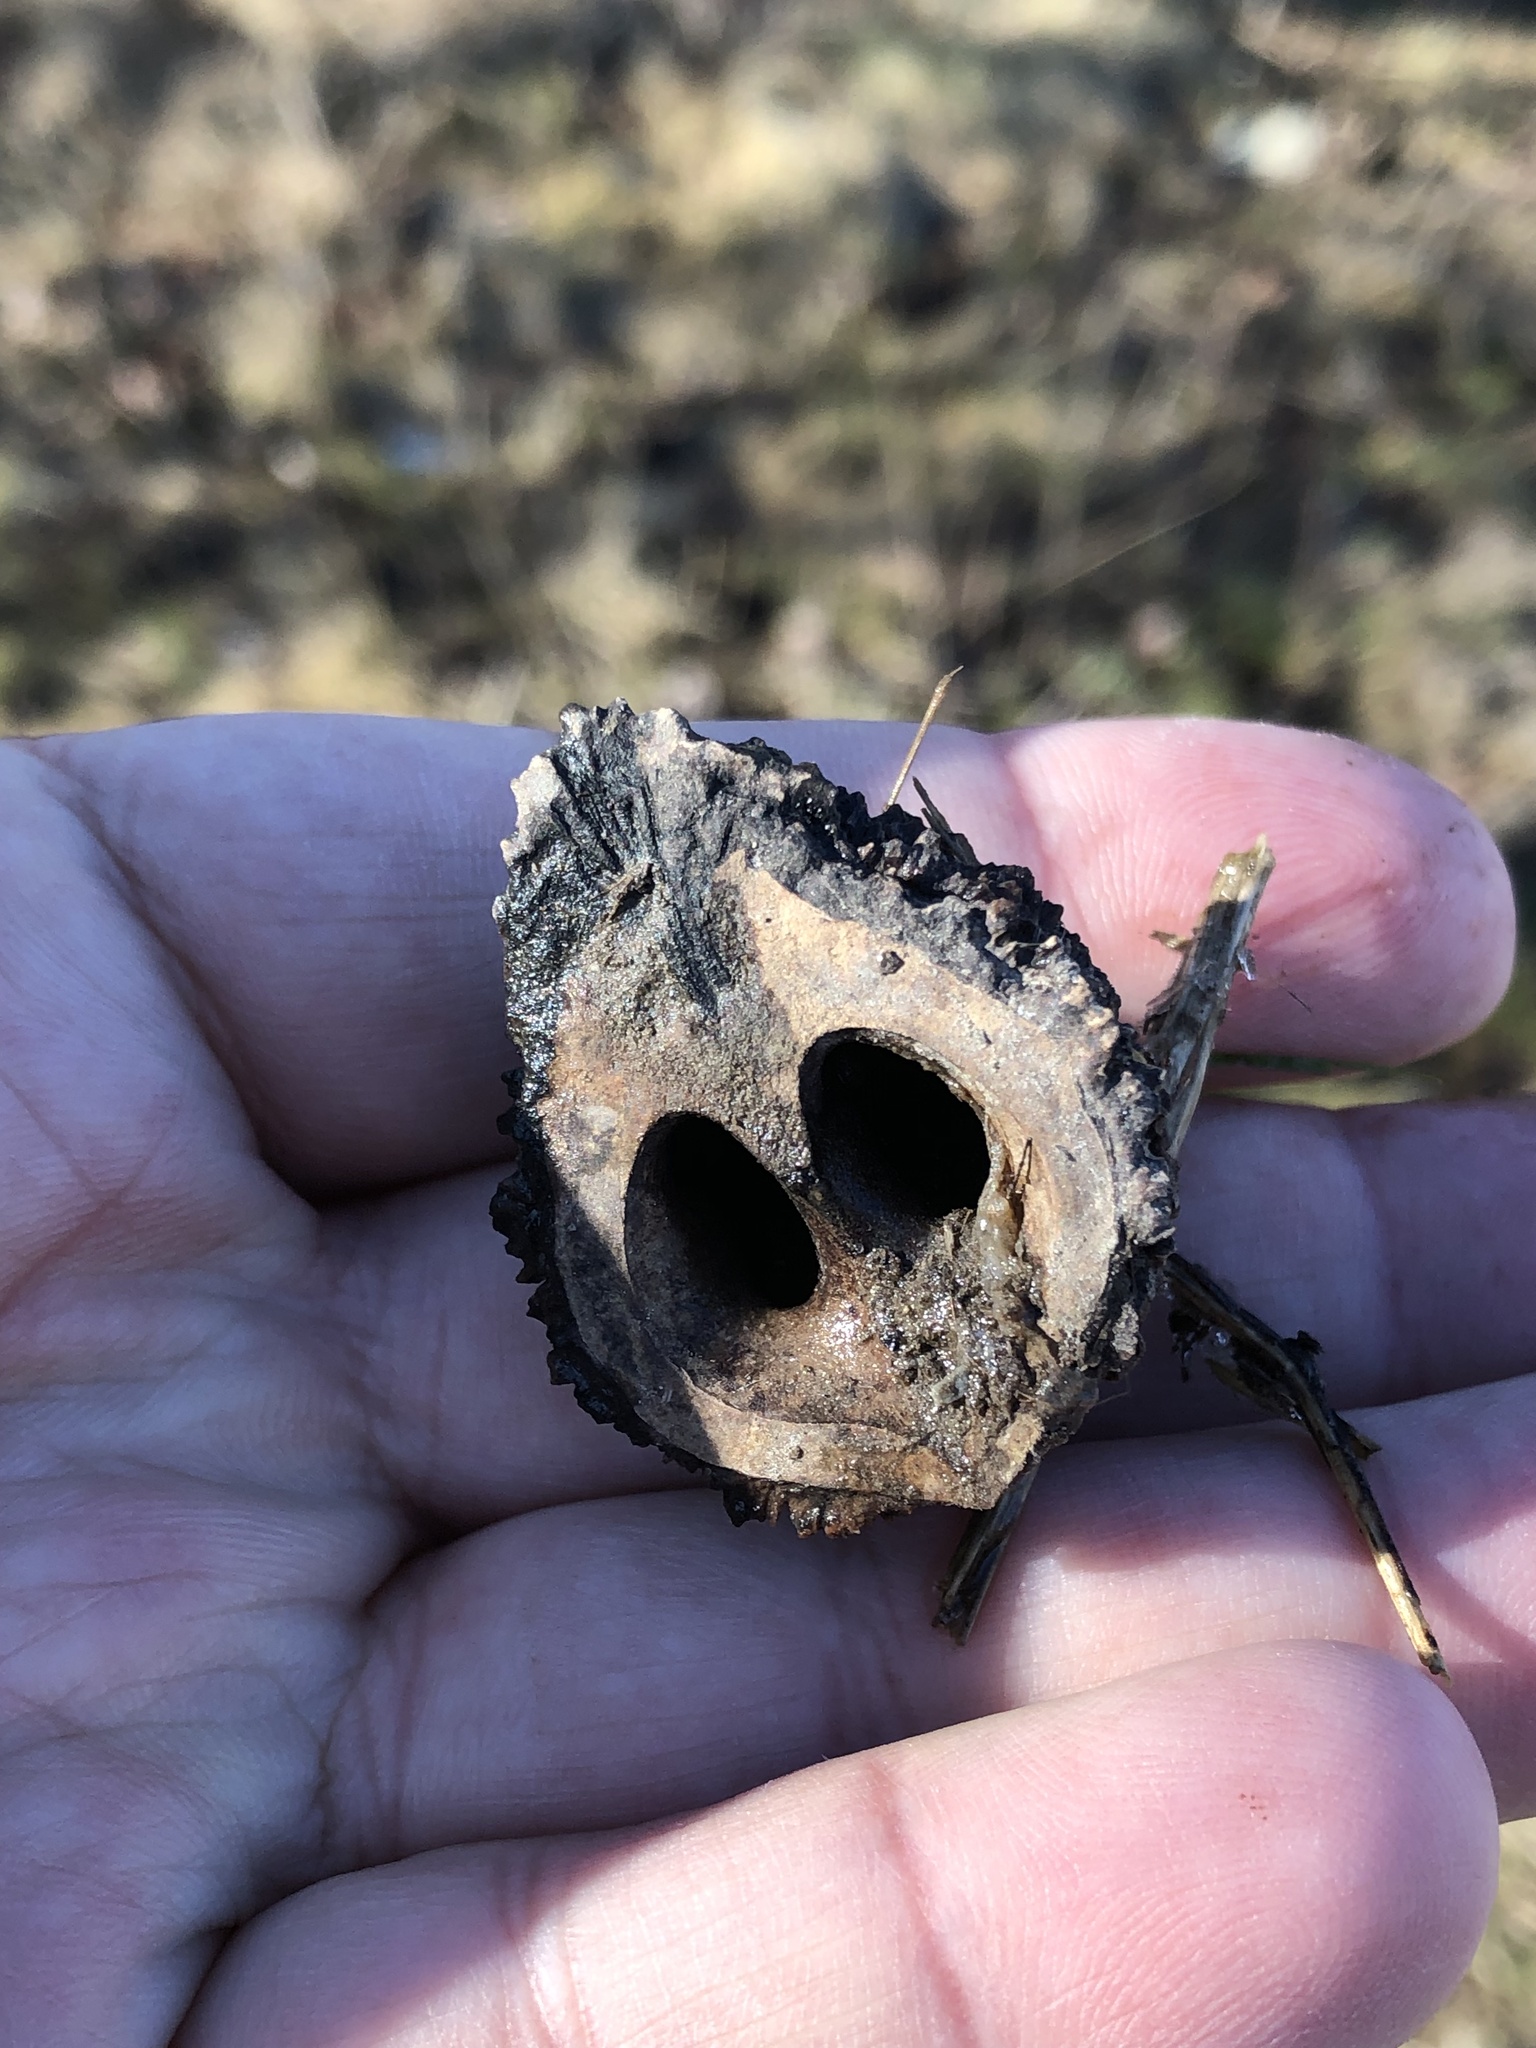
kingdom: Plantae
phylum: Tracheophyta
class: Magnoliopsida
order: Fagales
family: Juglandaceae
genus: Juglans
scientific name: Juglans nigra
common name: Black walnut
